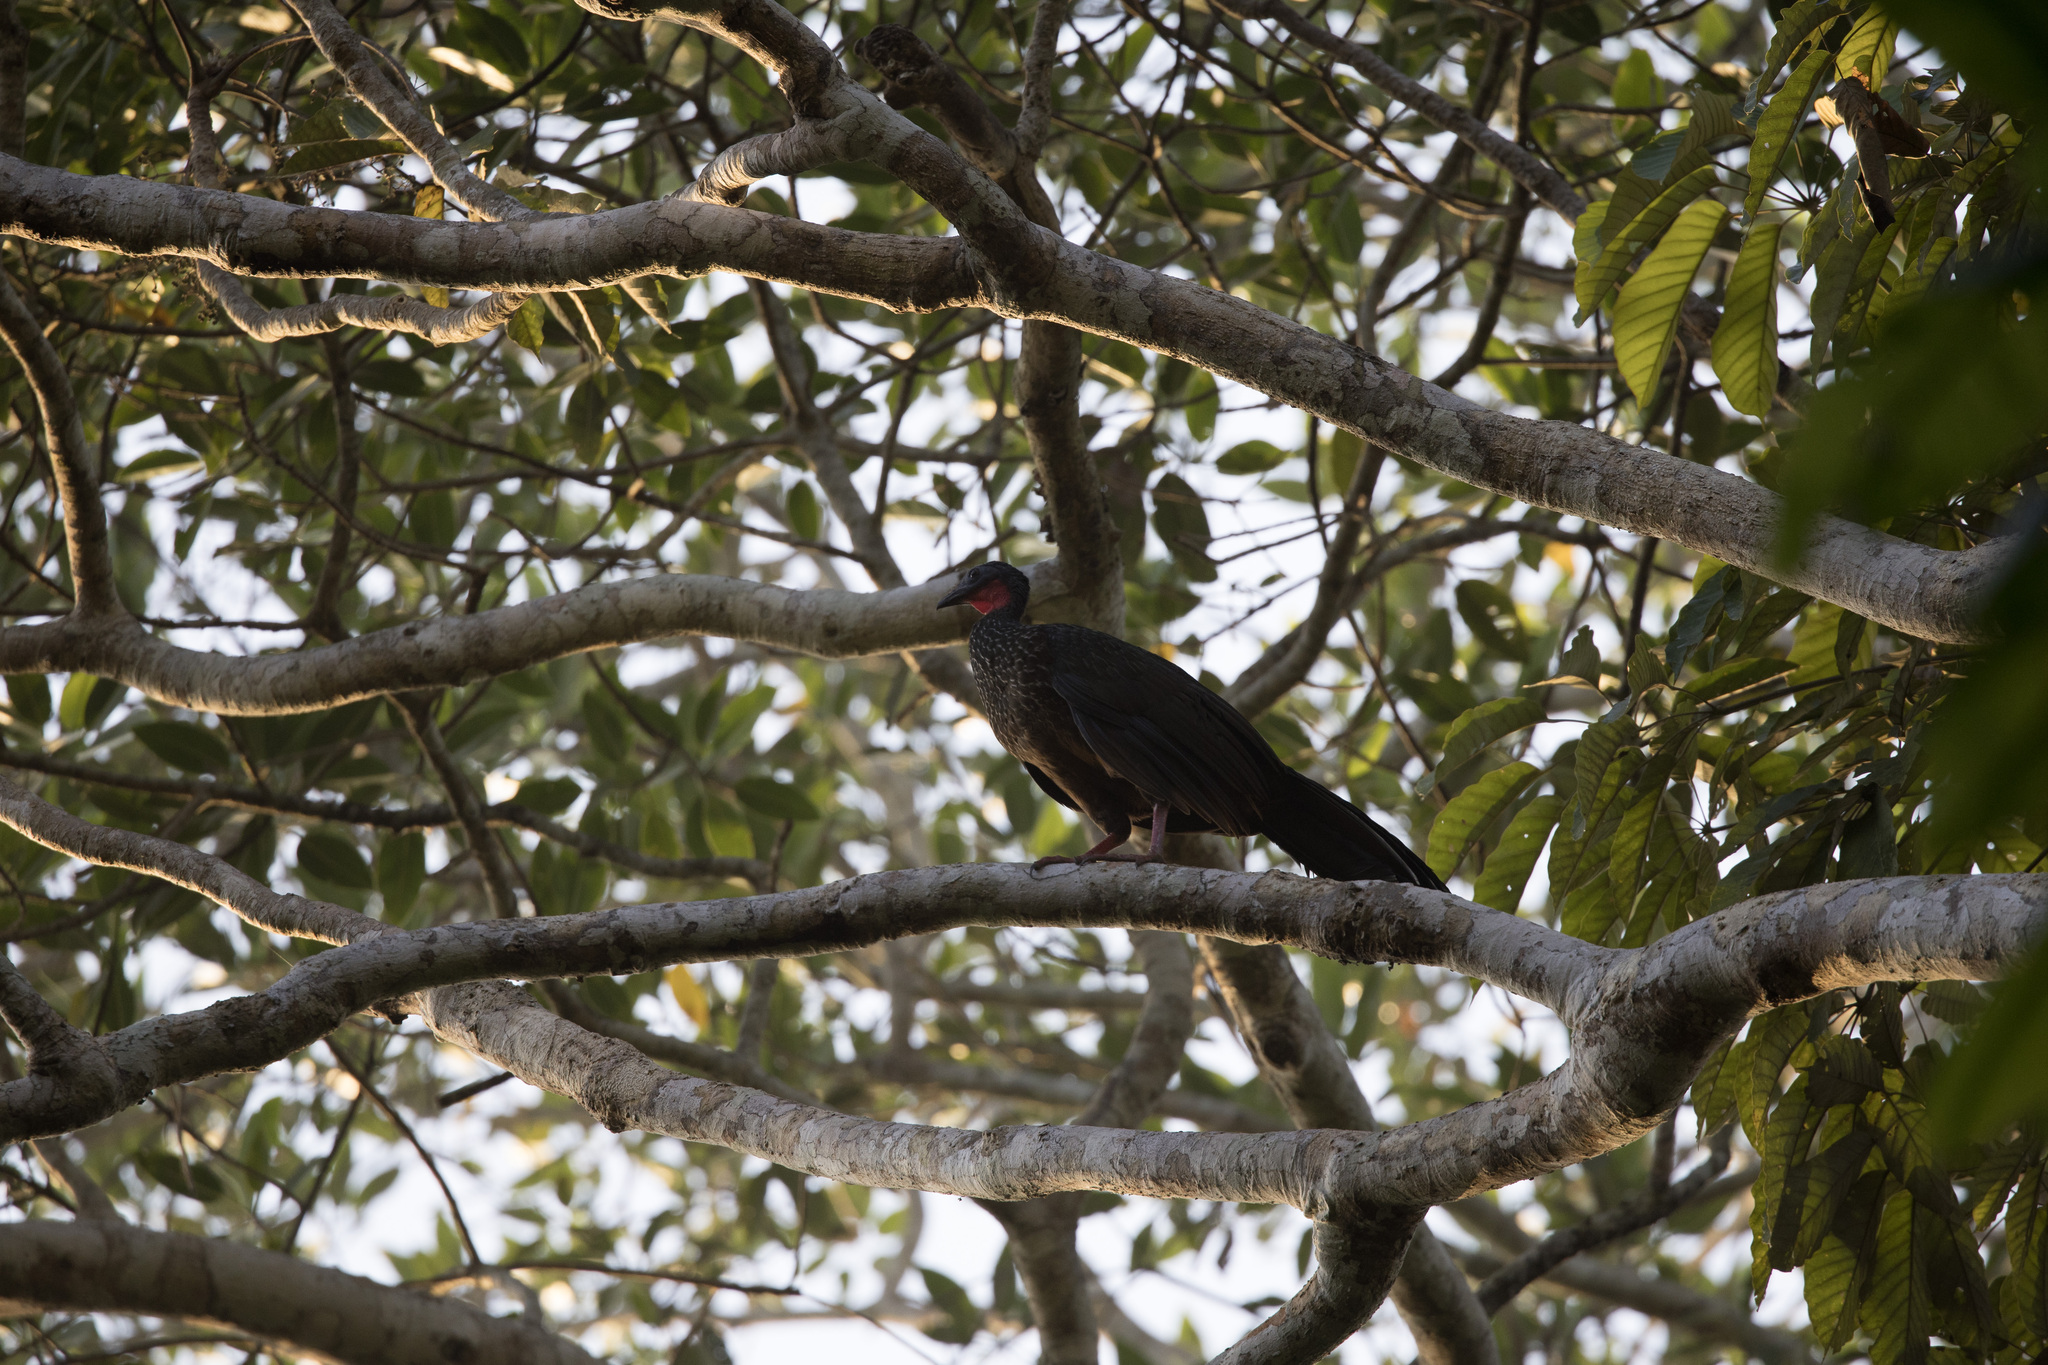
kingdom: Animalia
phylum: Chordata
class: Aves
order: Galliformes
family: Cracidae
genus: Penelope
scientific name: Penelope jacquacu
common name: Spix's guan
